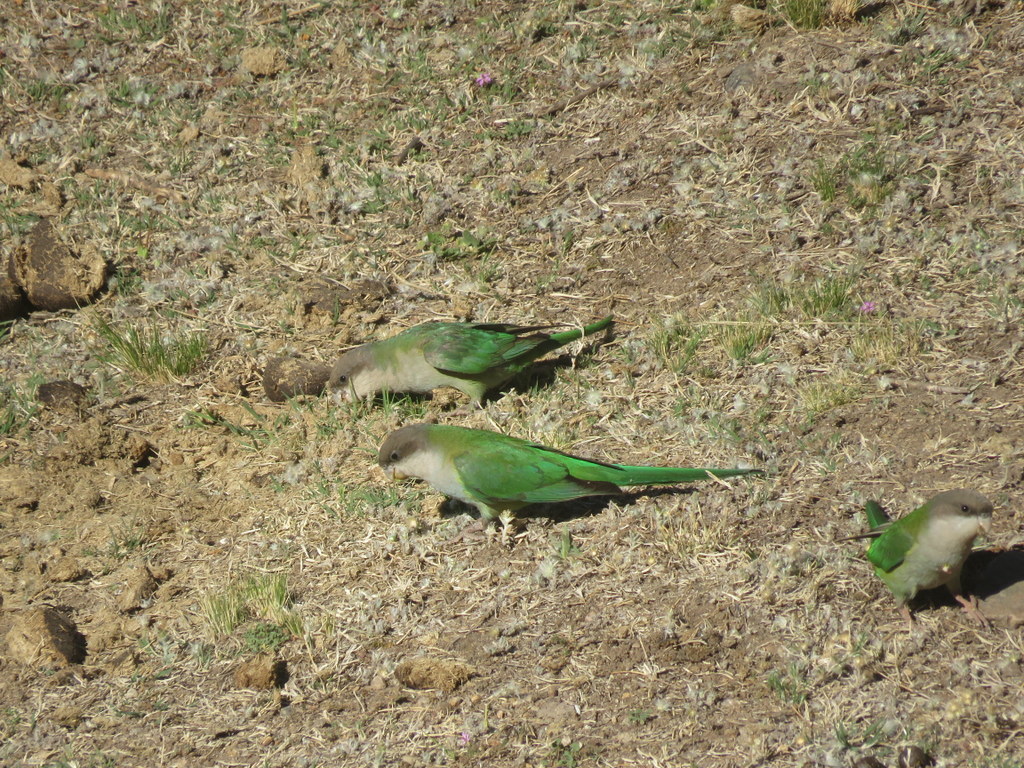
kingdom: Animalia
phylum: Chordata
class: Aves
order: Psittaciformes
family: Psittacidae
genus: Psilopsiagon
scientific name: Psilopsiagon aymara
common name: Grey-hooded parakeet
